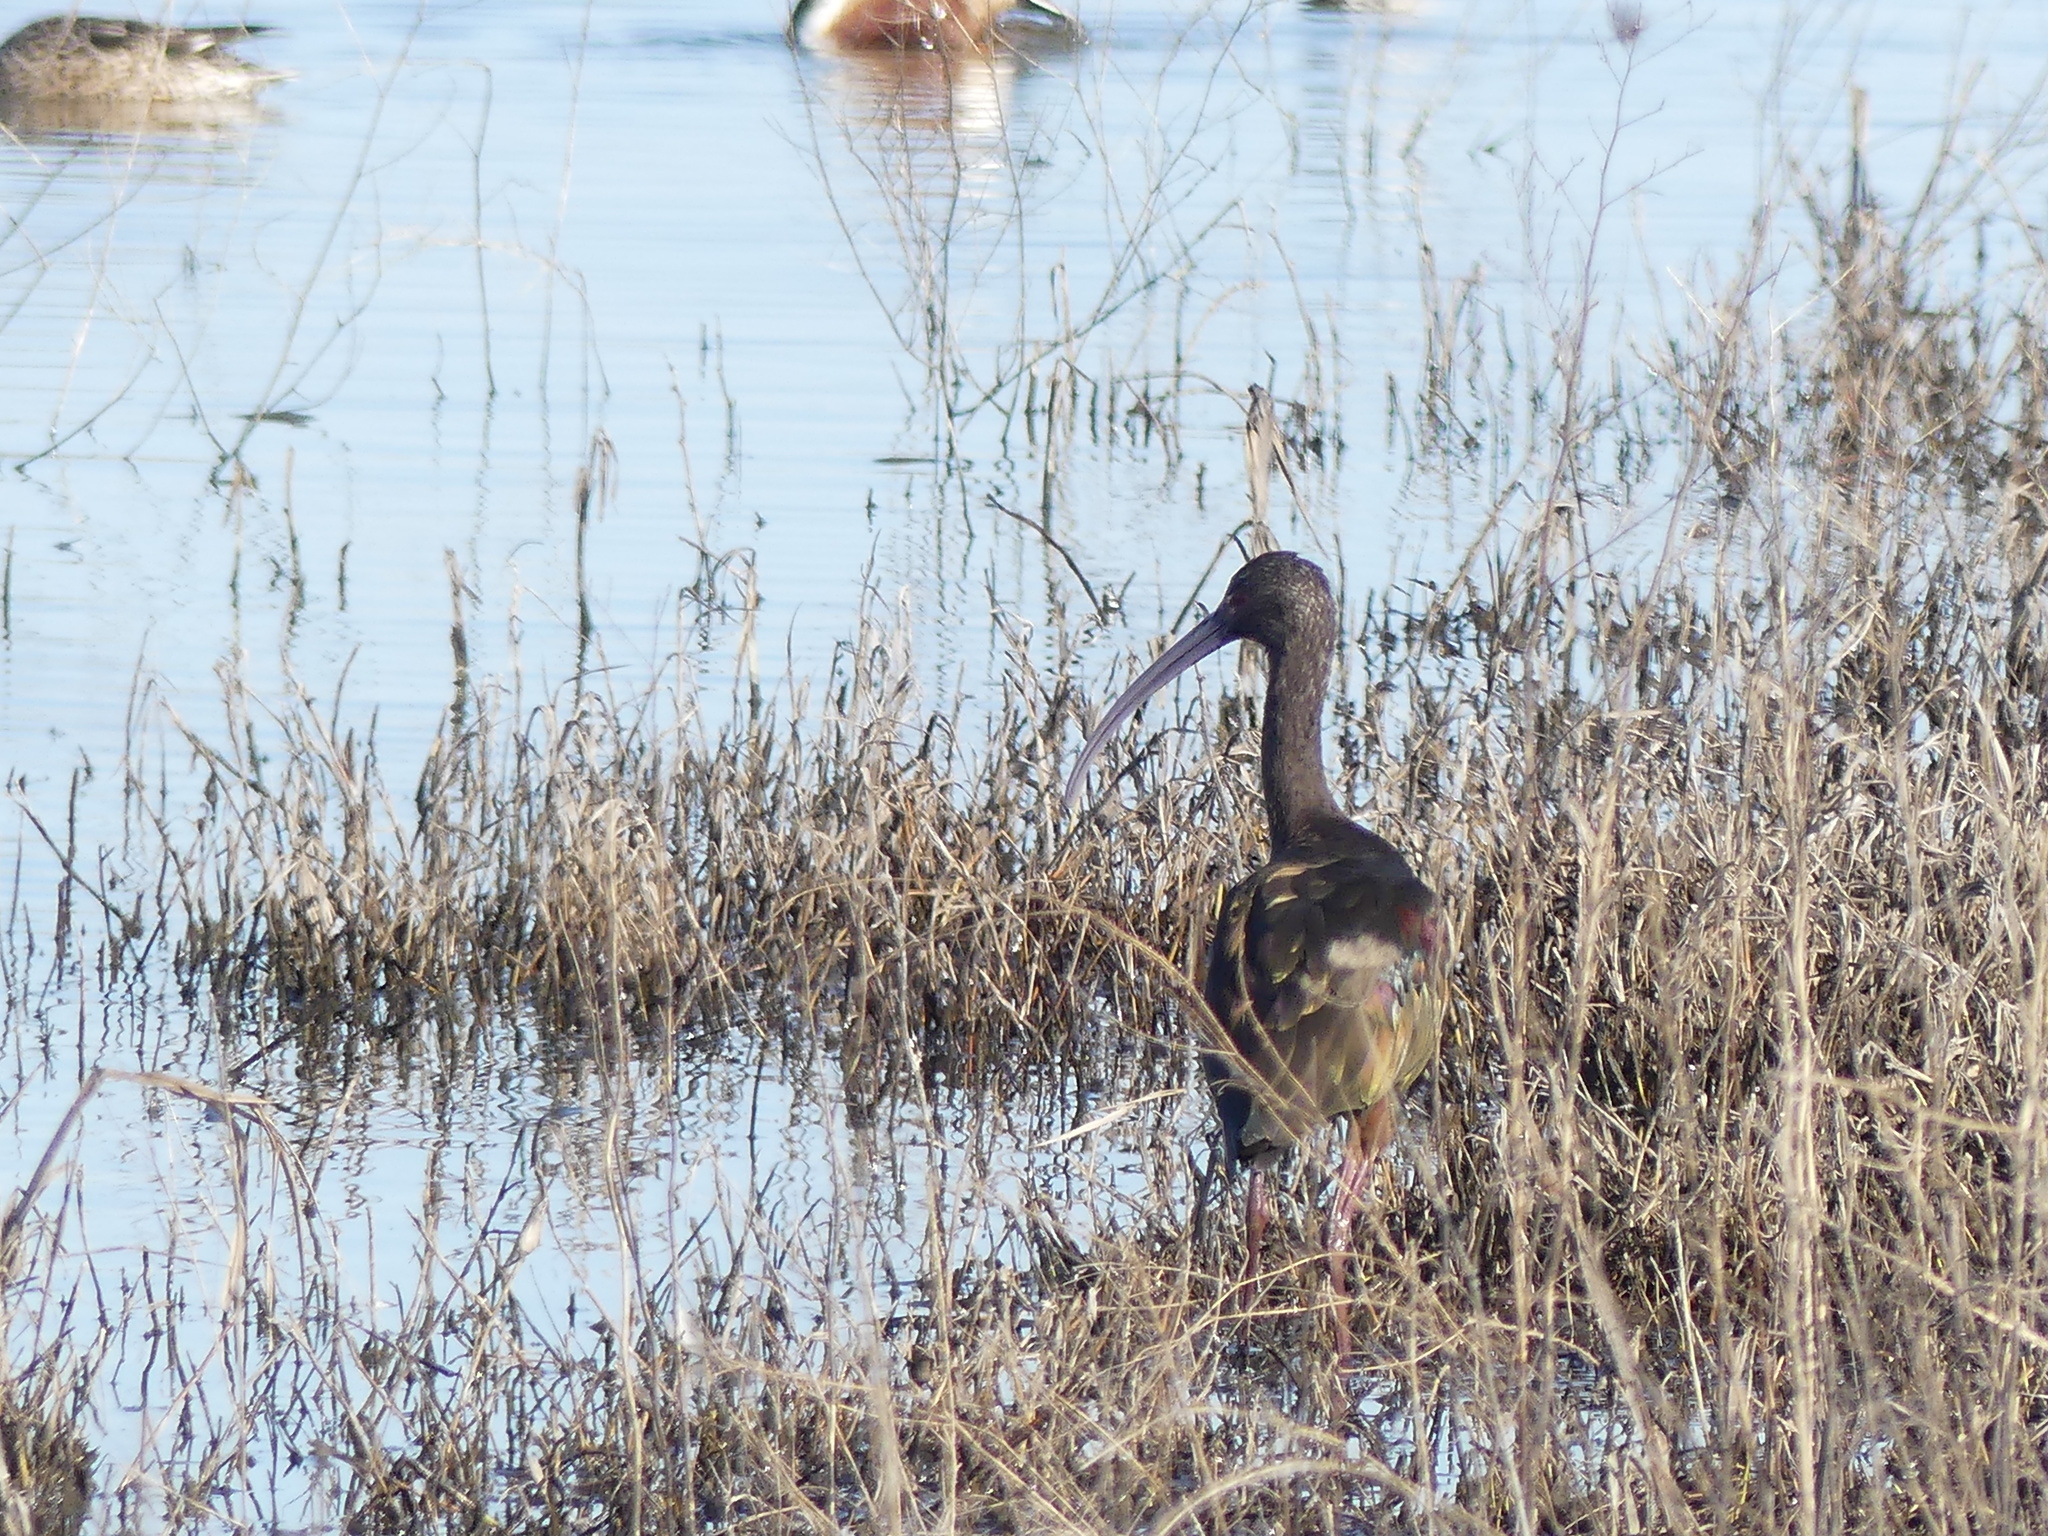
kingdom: Animalia
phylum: Chordata
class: Aves
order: Pelecaniformes
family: Threskiornithidae
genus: Plegadis
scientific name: Plegadis chihi
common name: White-faced ibis
